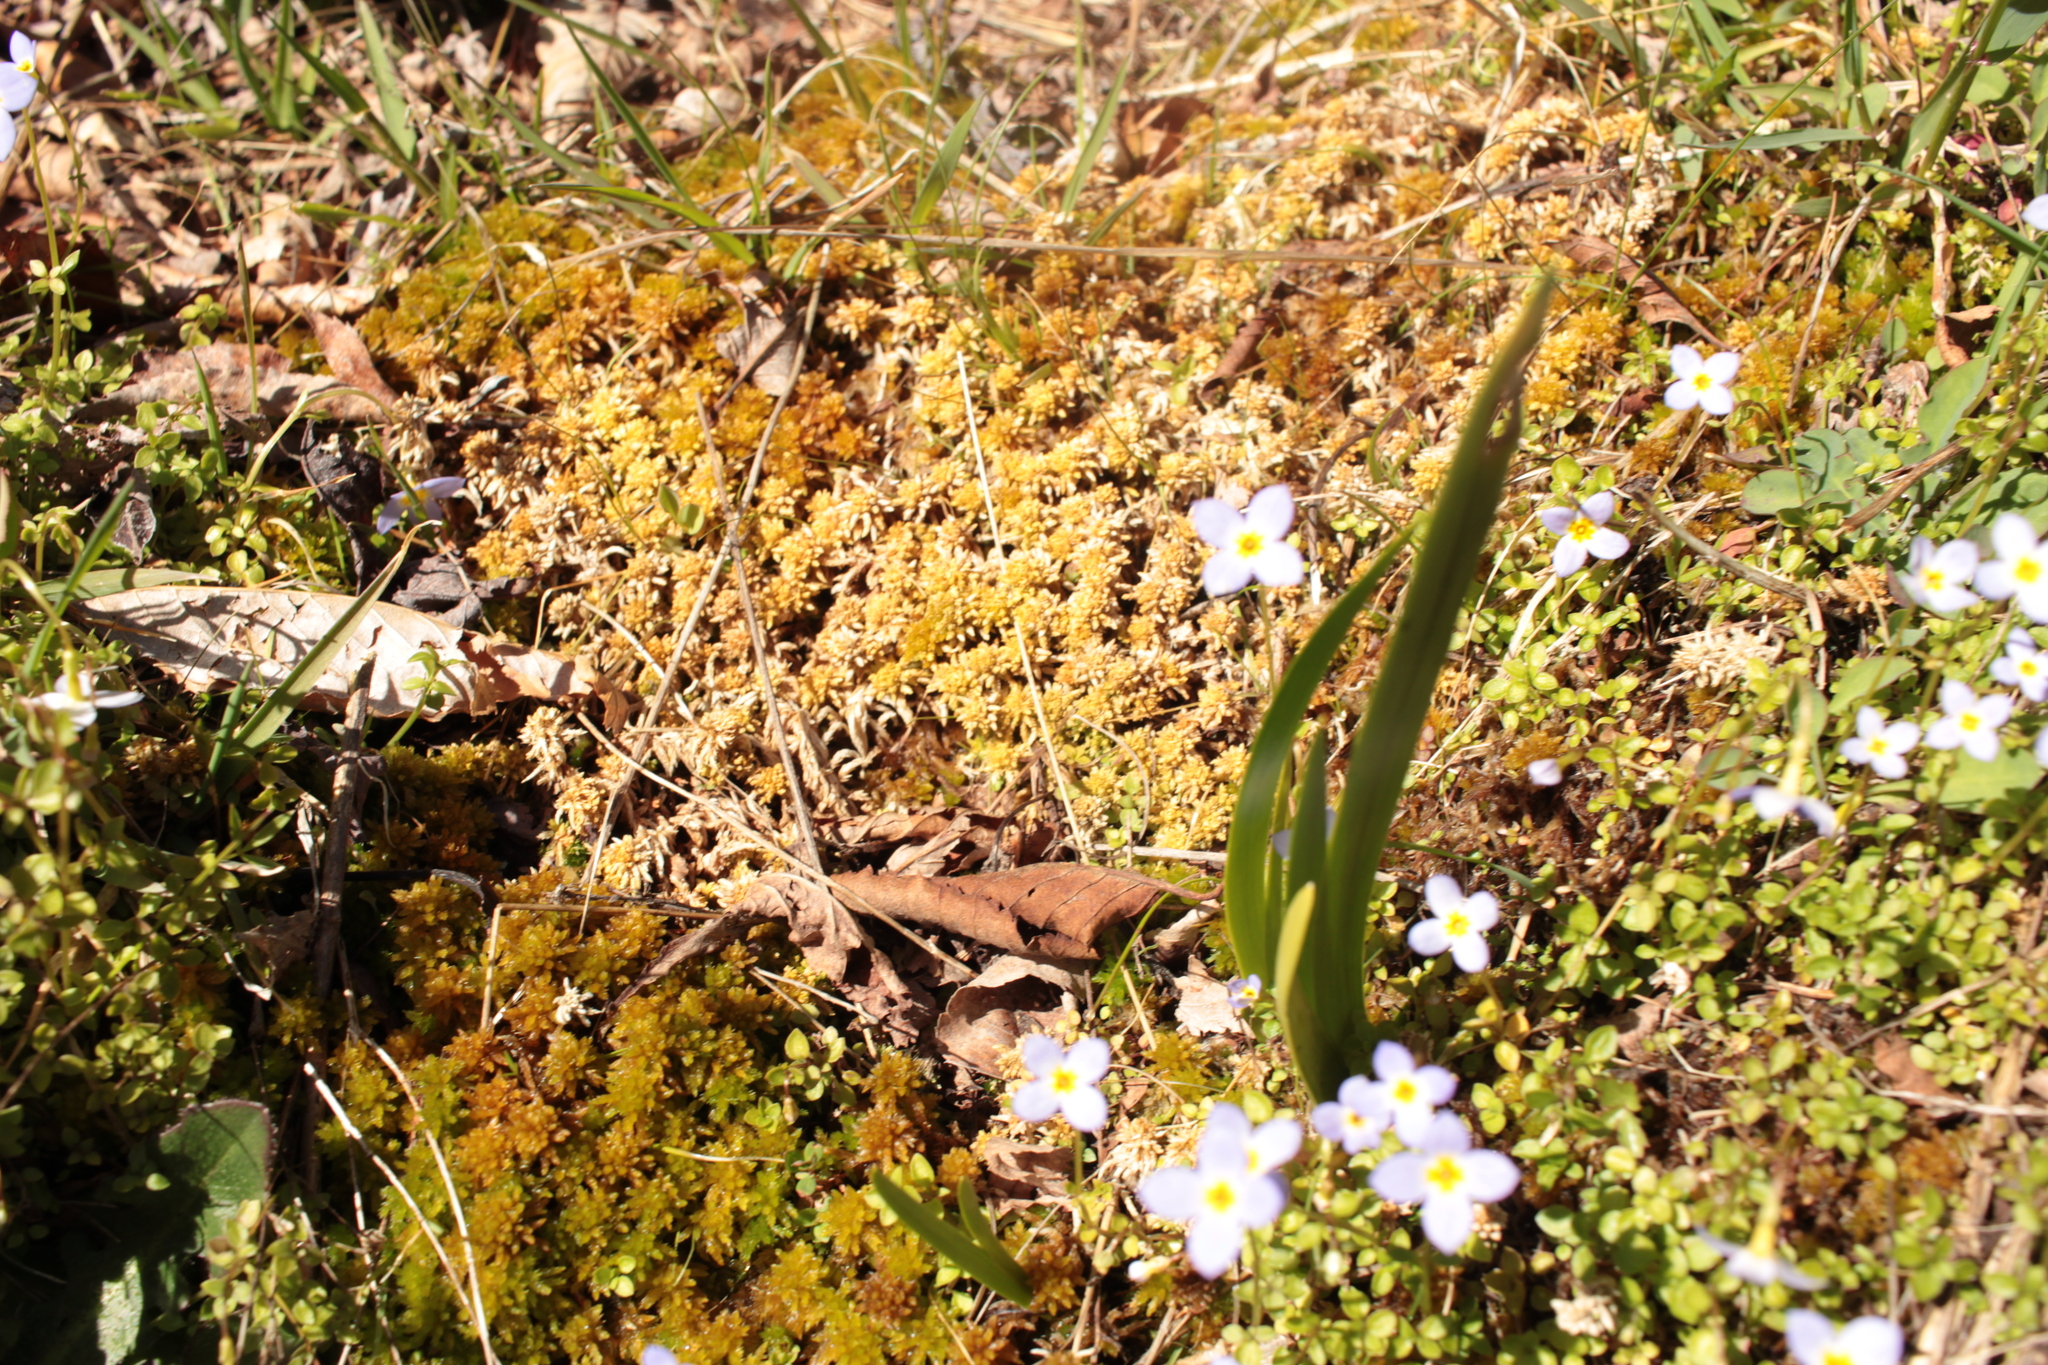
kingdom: Plantae
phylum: Tracheophyta
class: Magnoliopsida
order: Gentianales
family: Rubiaceae
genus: Houstonia
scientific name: Houstonia serpyllifolia
